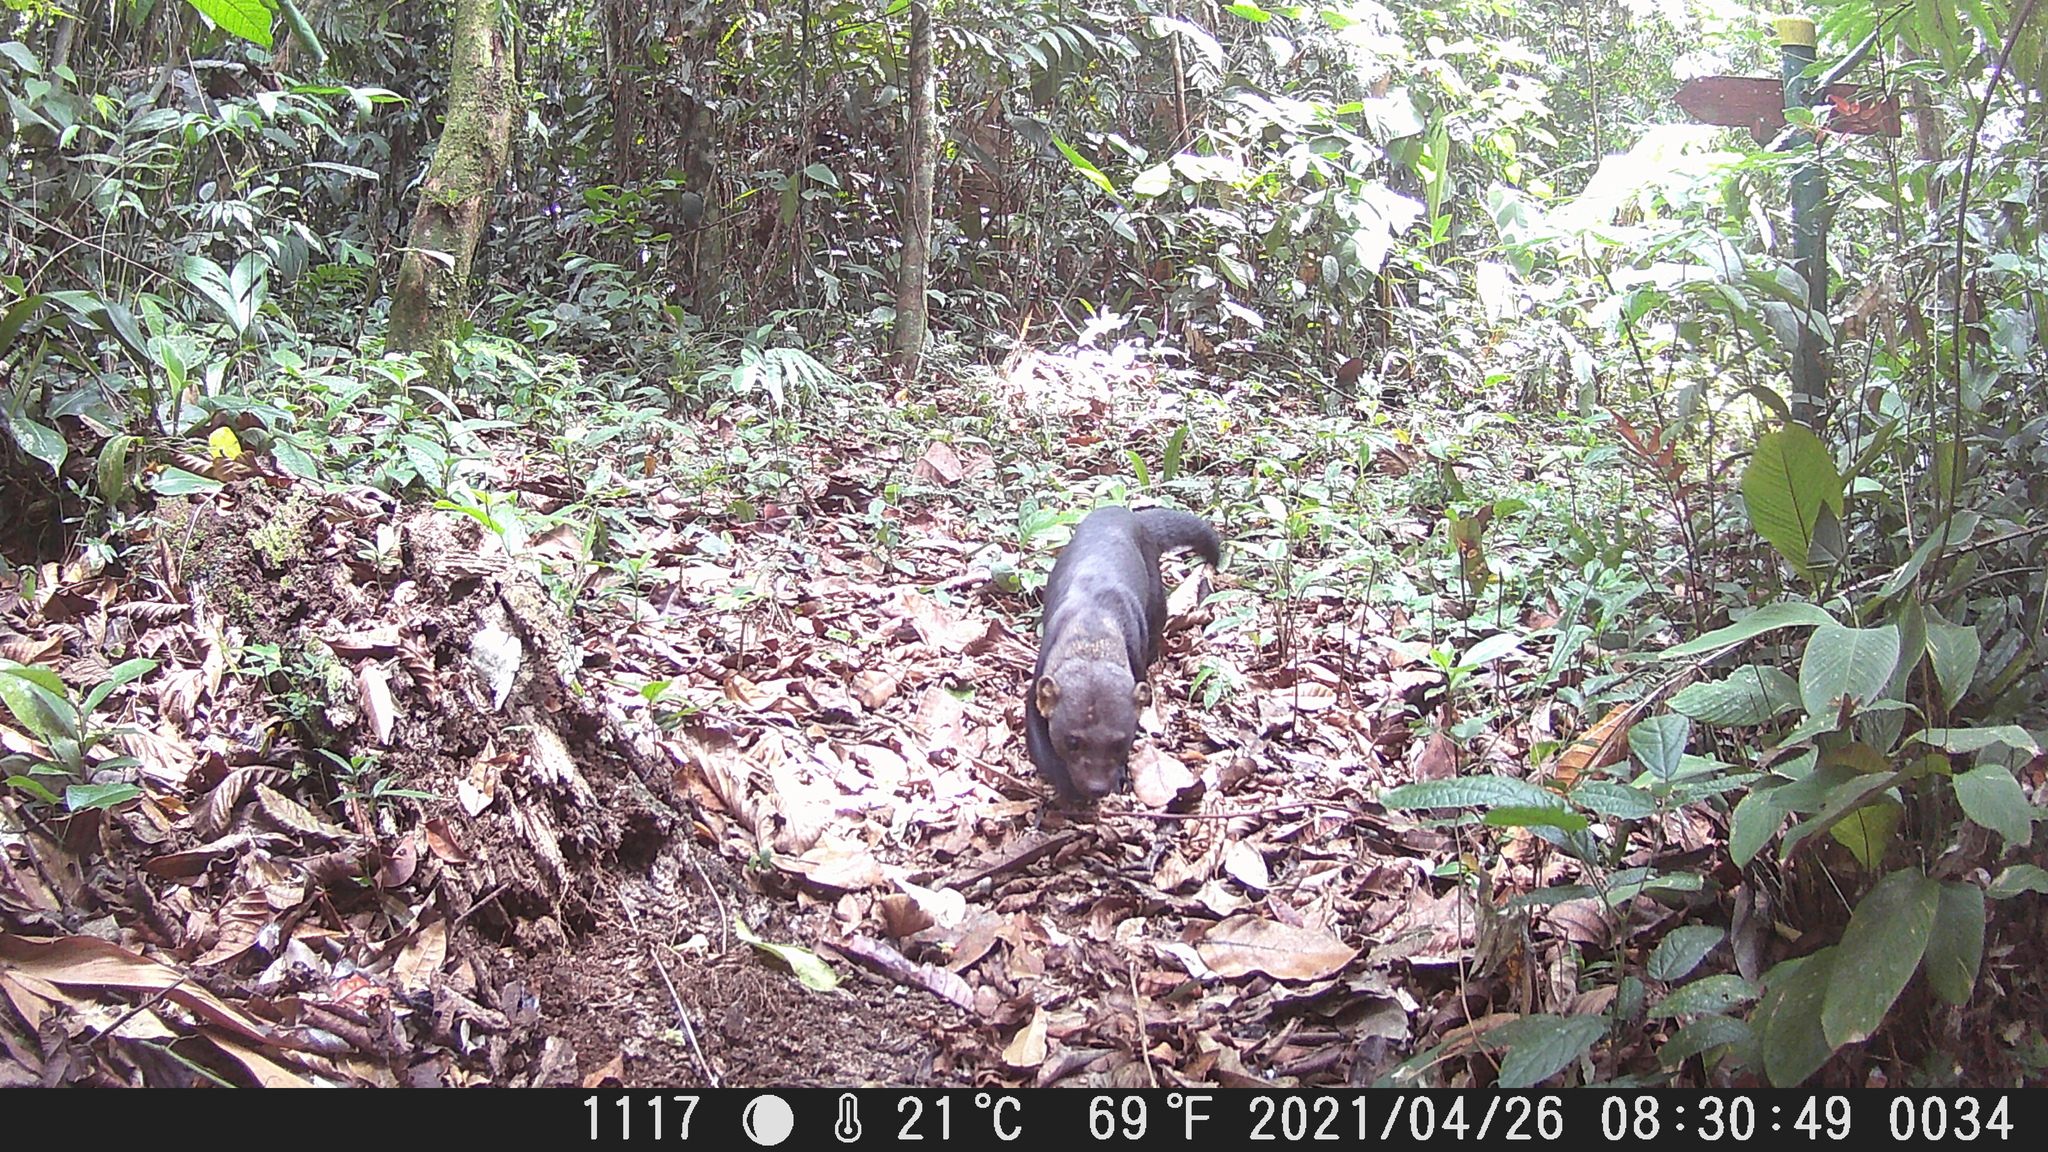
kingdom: Animalia
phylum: Chordata
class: Mammalia
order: Carnivora
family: Mustelidae
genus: Eira
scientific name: Eira barbara
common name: Tayra
